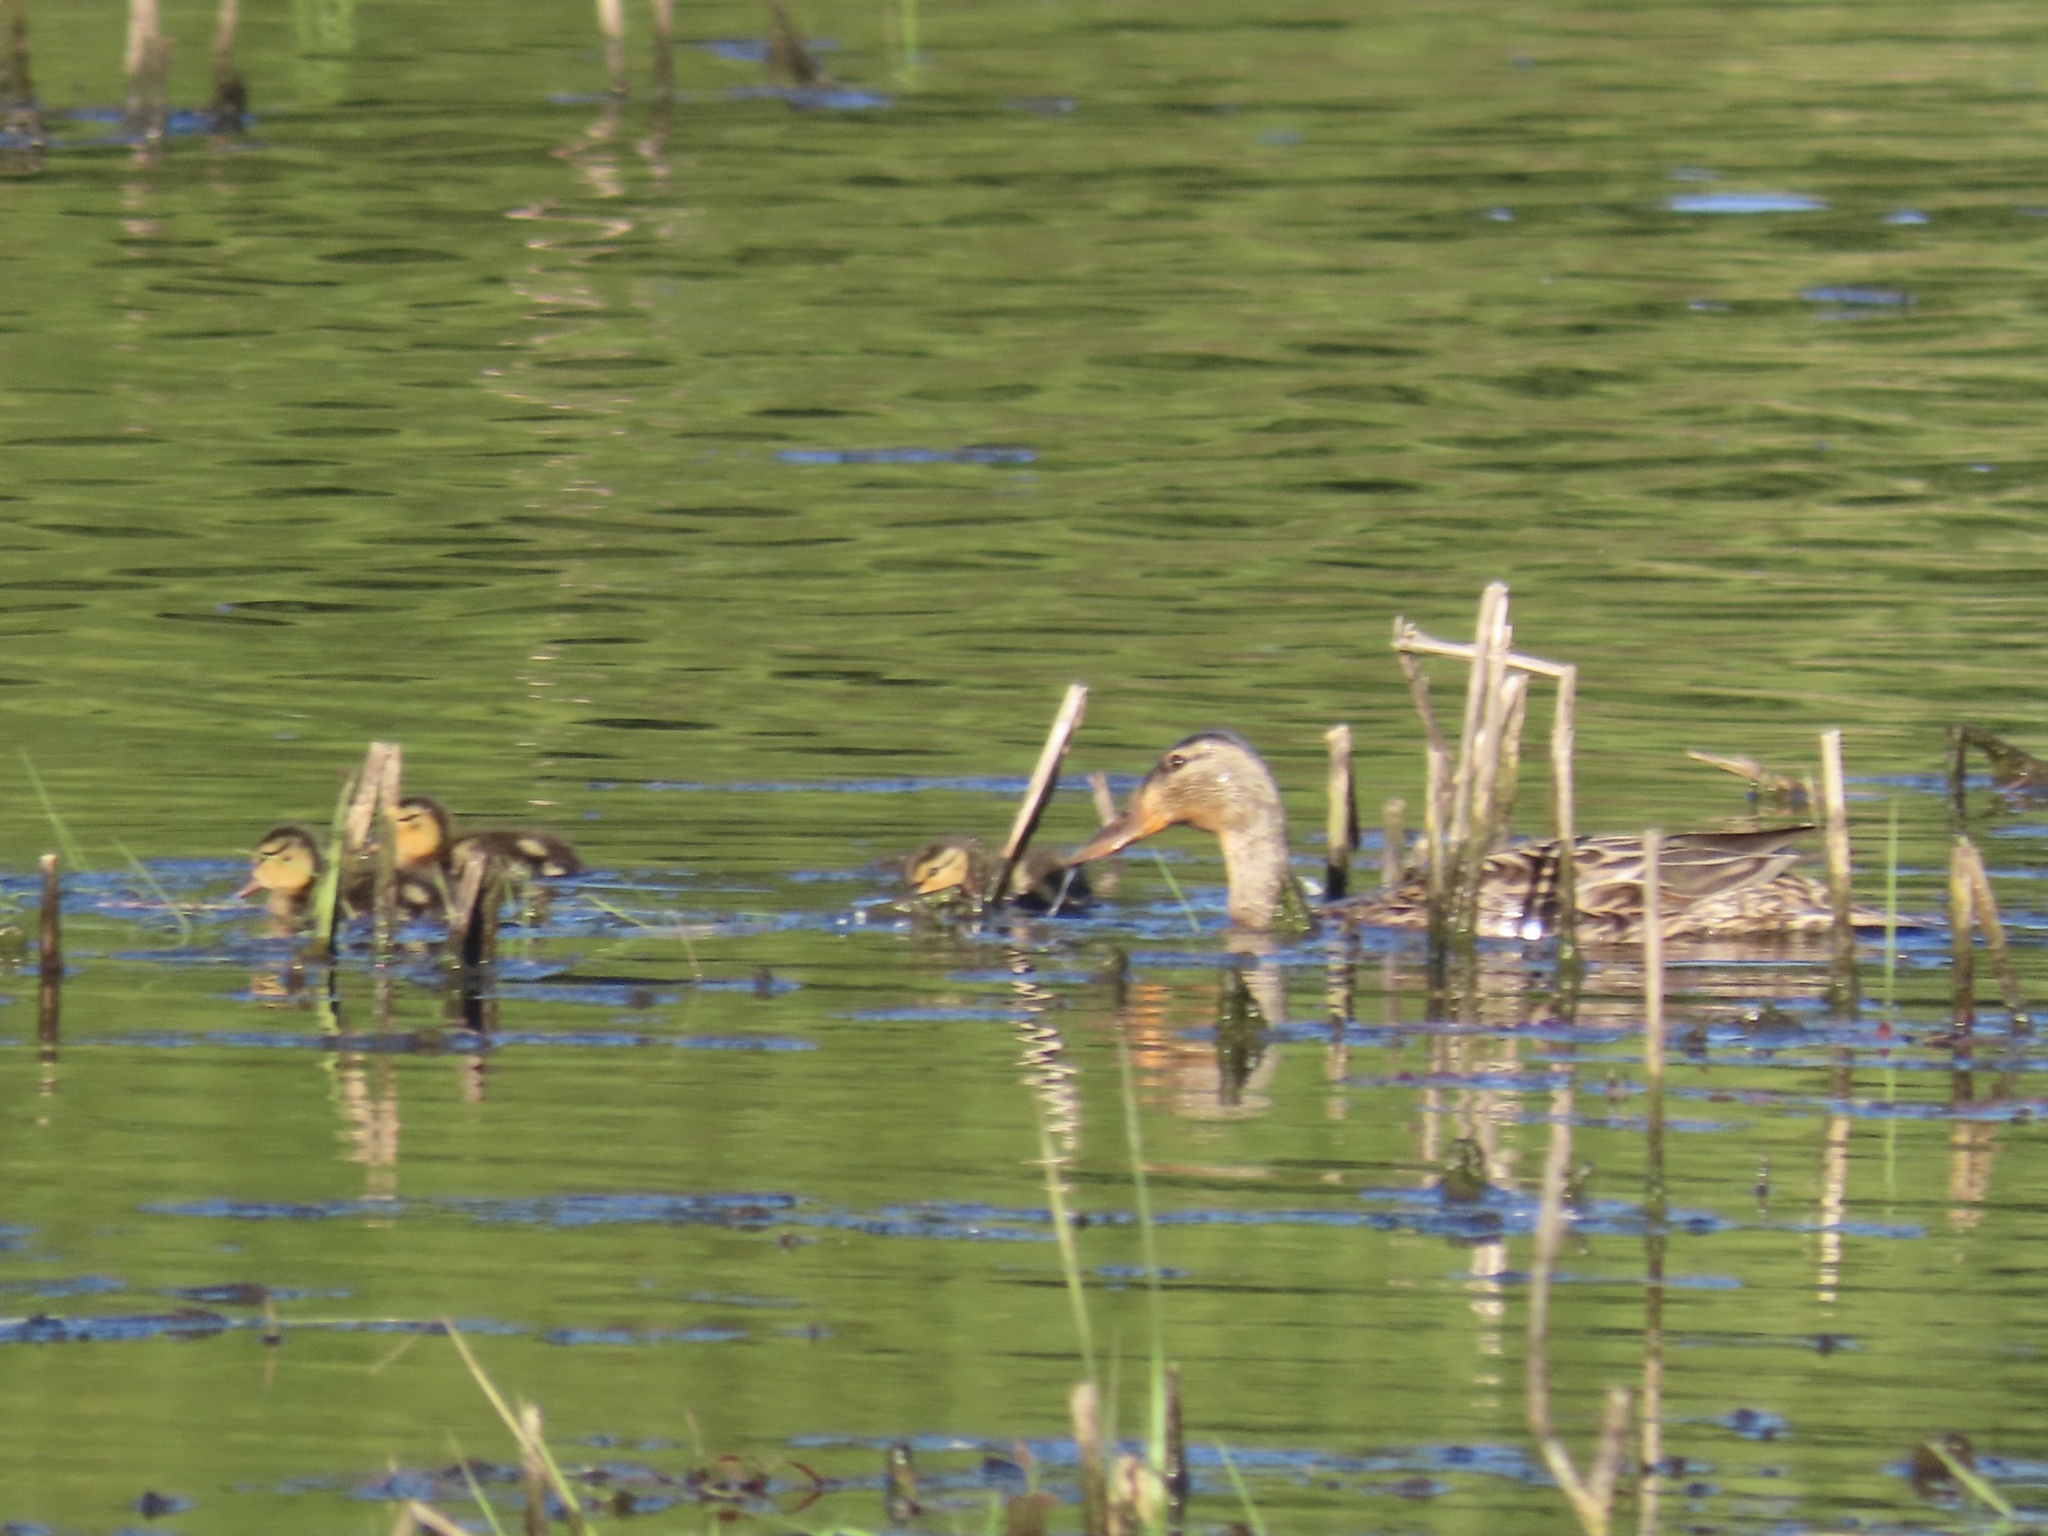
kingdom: Animalia
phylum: Chordata
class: Aves
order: Anseriformes
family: Anatidae
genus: Anas
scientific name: Anas platyrhynchos
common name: Mallard
